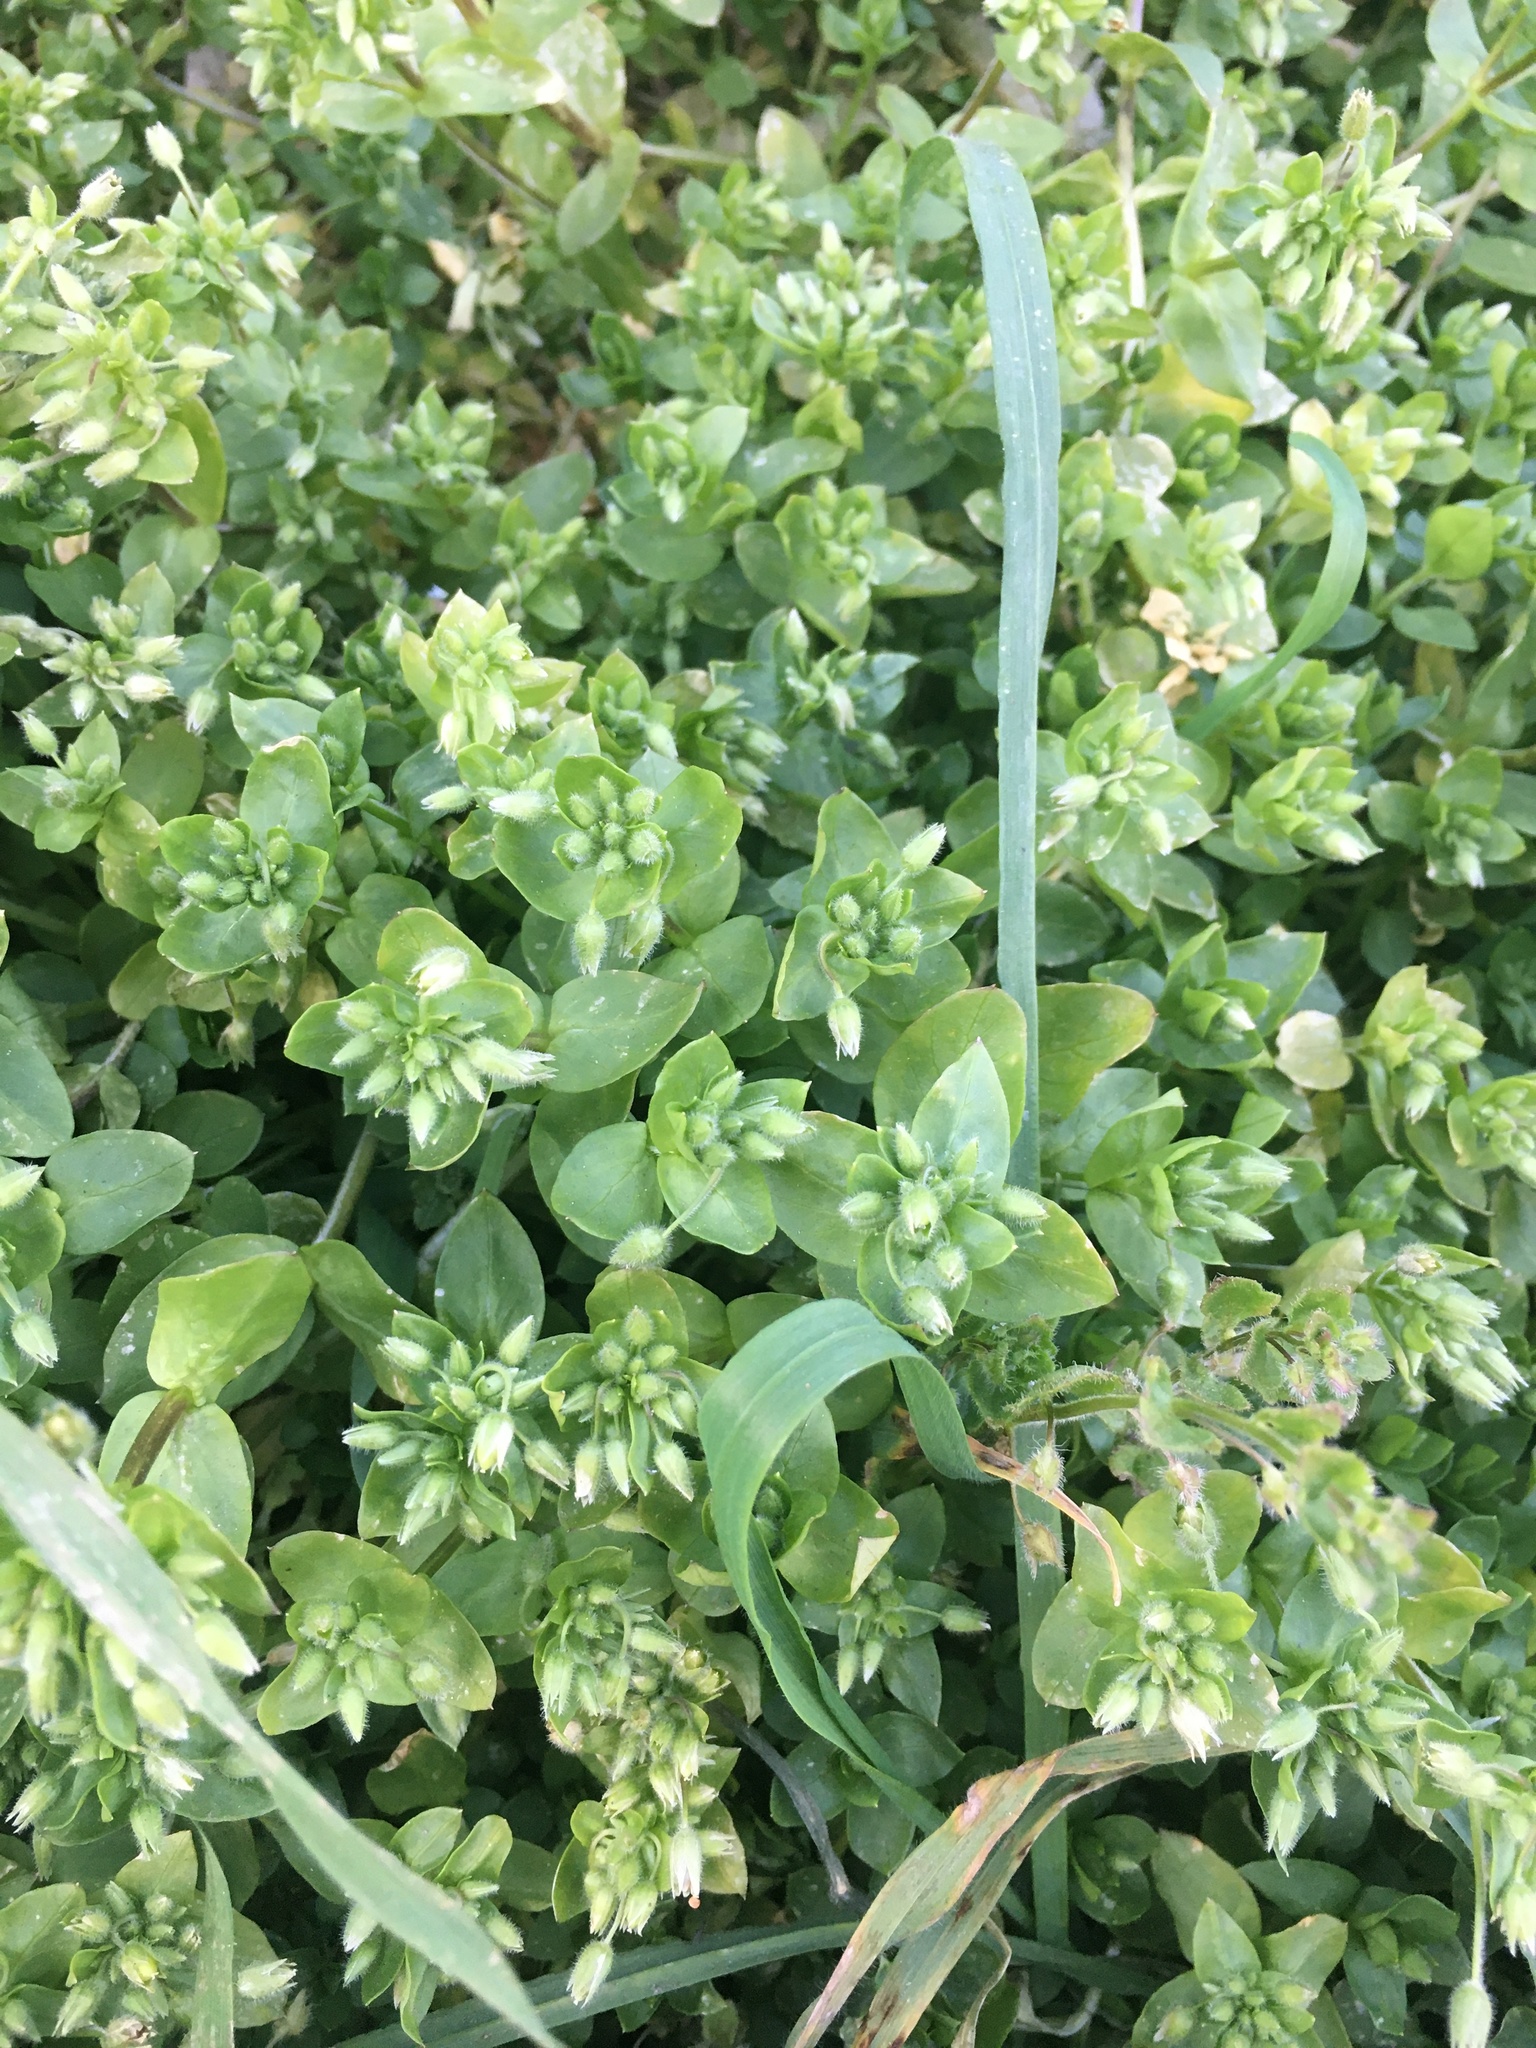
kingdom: Plantae
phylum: Tracheophyta
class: Magnoliopsida
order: Caryophyllales
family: Caryophyllaceae
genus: Stellaria
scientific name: Stellaria media
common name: Common chickweed
